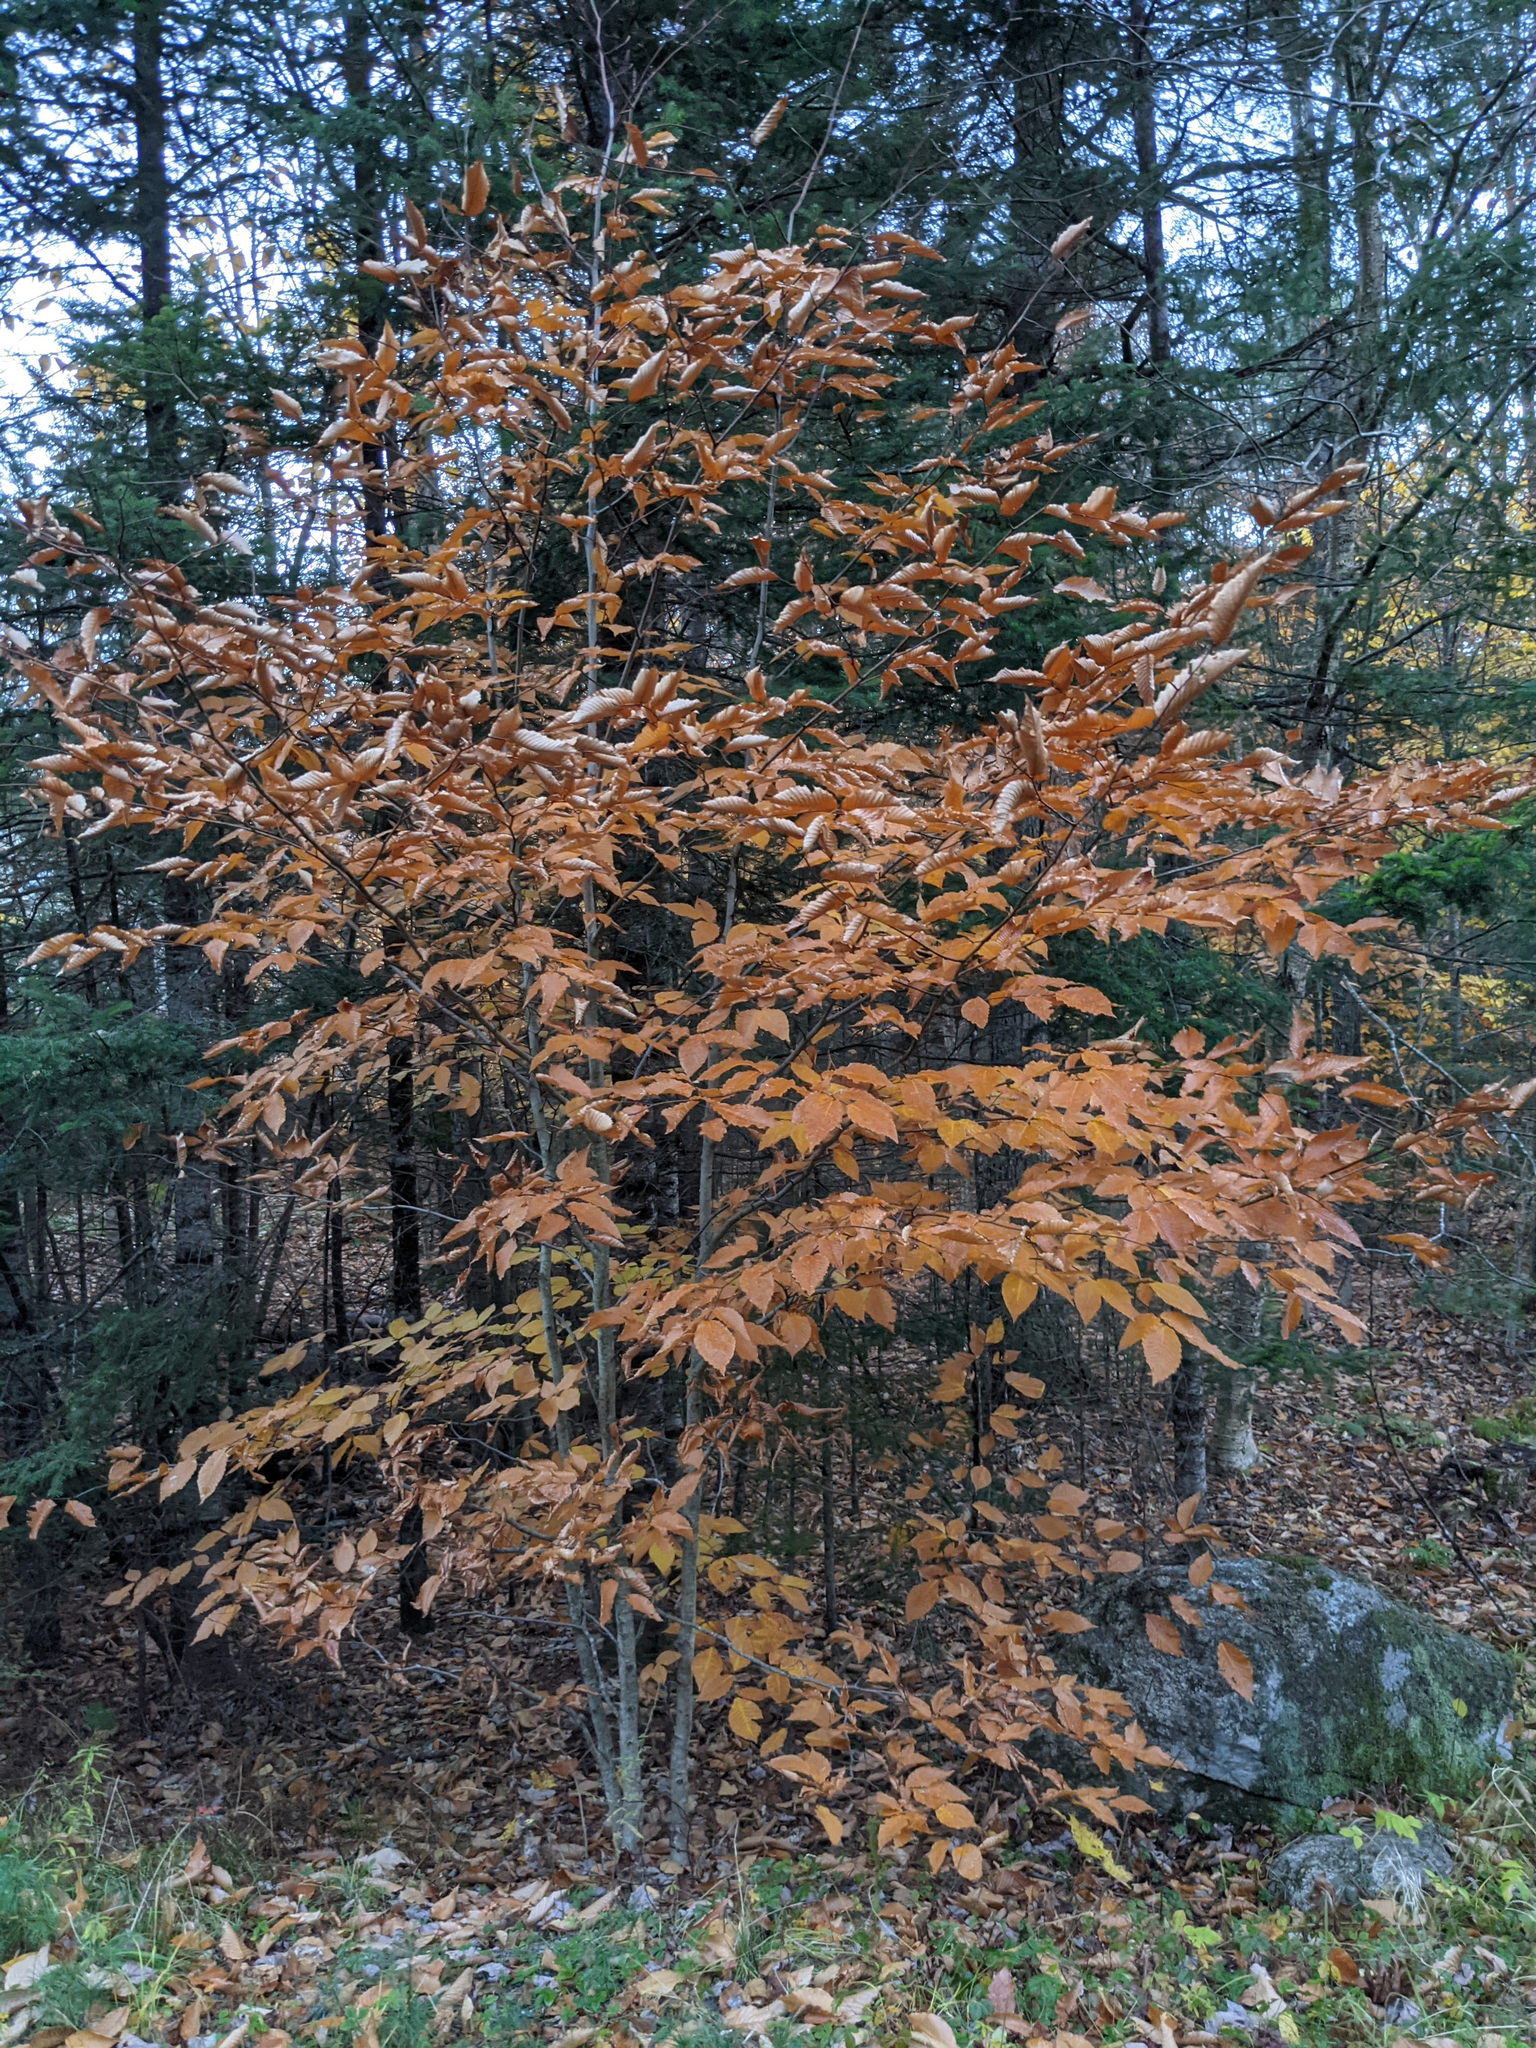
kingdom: Plantae
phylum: Tracheophyta
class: Magnoliopsida
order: Fagales
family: Fagaceae
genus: Fagus
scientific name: Fagus grandifolia
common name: American beech
